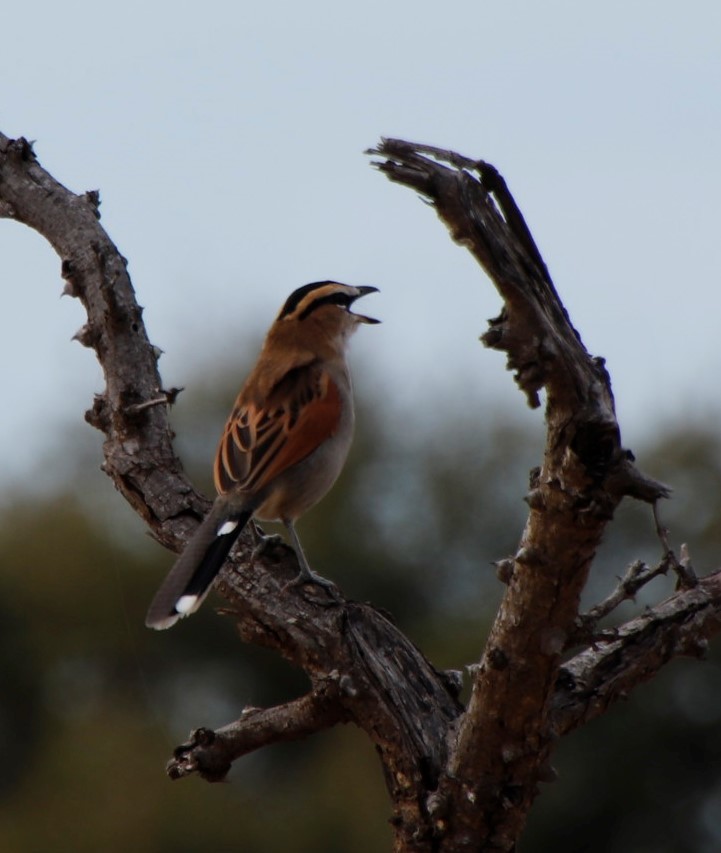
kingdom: Animalia
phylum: Chordata
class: Aves
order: Passeriformes
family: Malaconotidae
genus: Tchagra
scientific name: Tchagra senegalus
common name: Black-crowned tchagra
